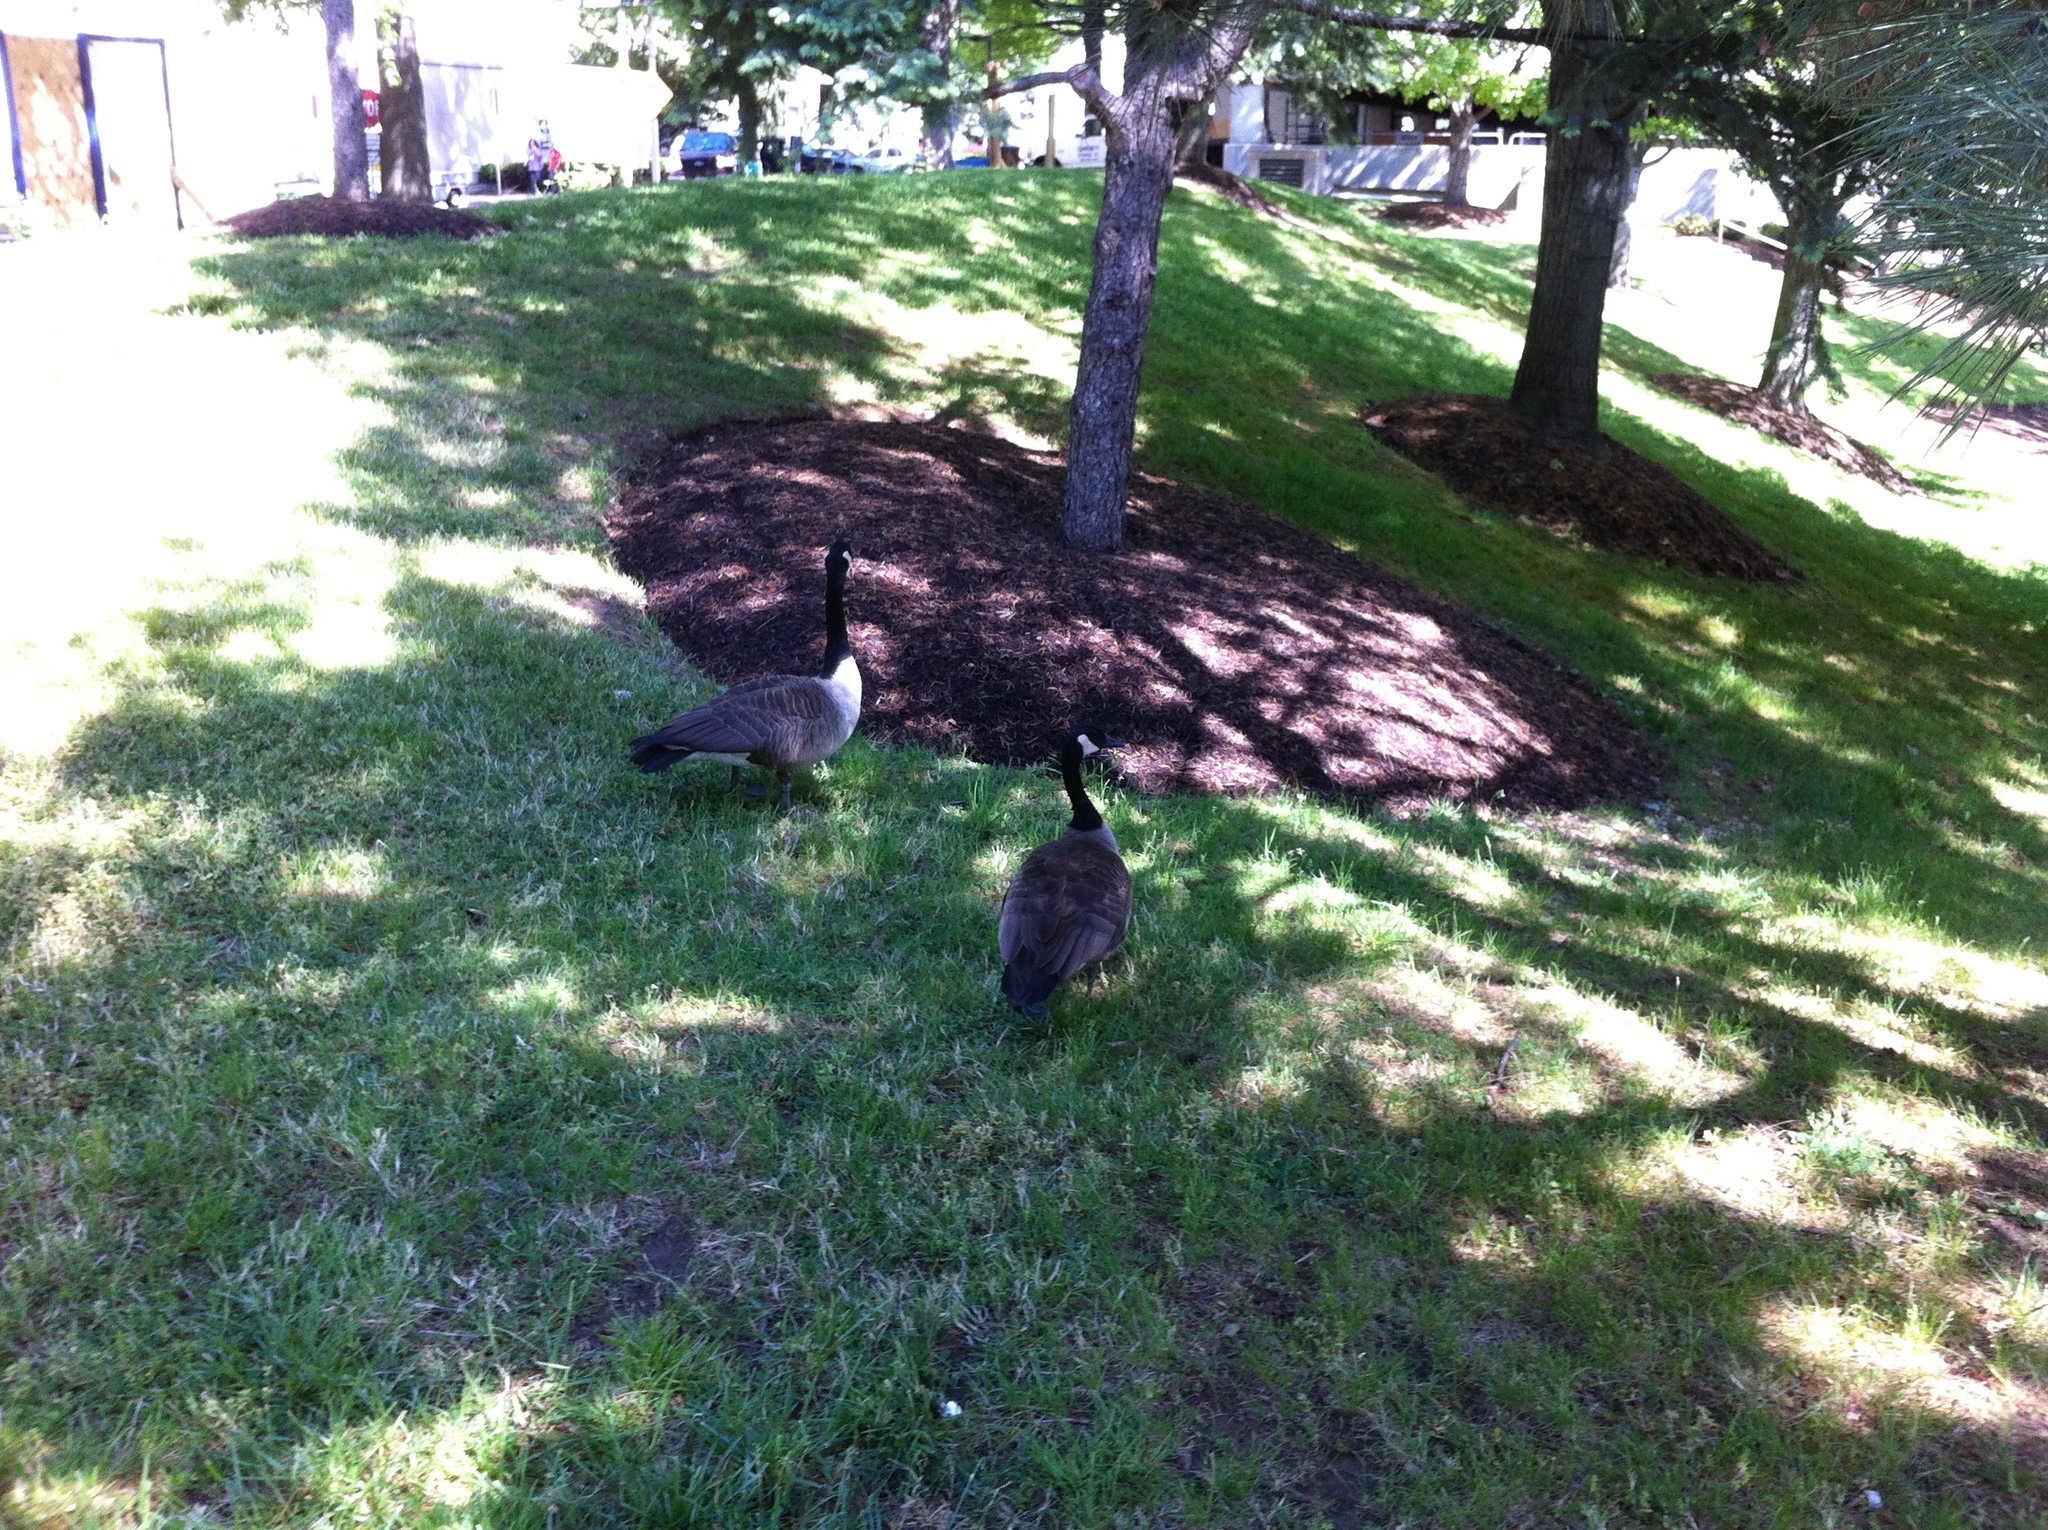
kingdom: Animalia
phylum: Chordata
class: Aves
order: Anseriformes
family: Anatidae
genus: Branta
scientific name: Branta canadensis
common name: Canada goose
